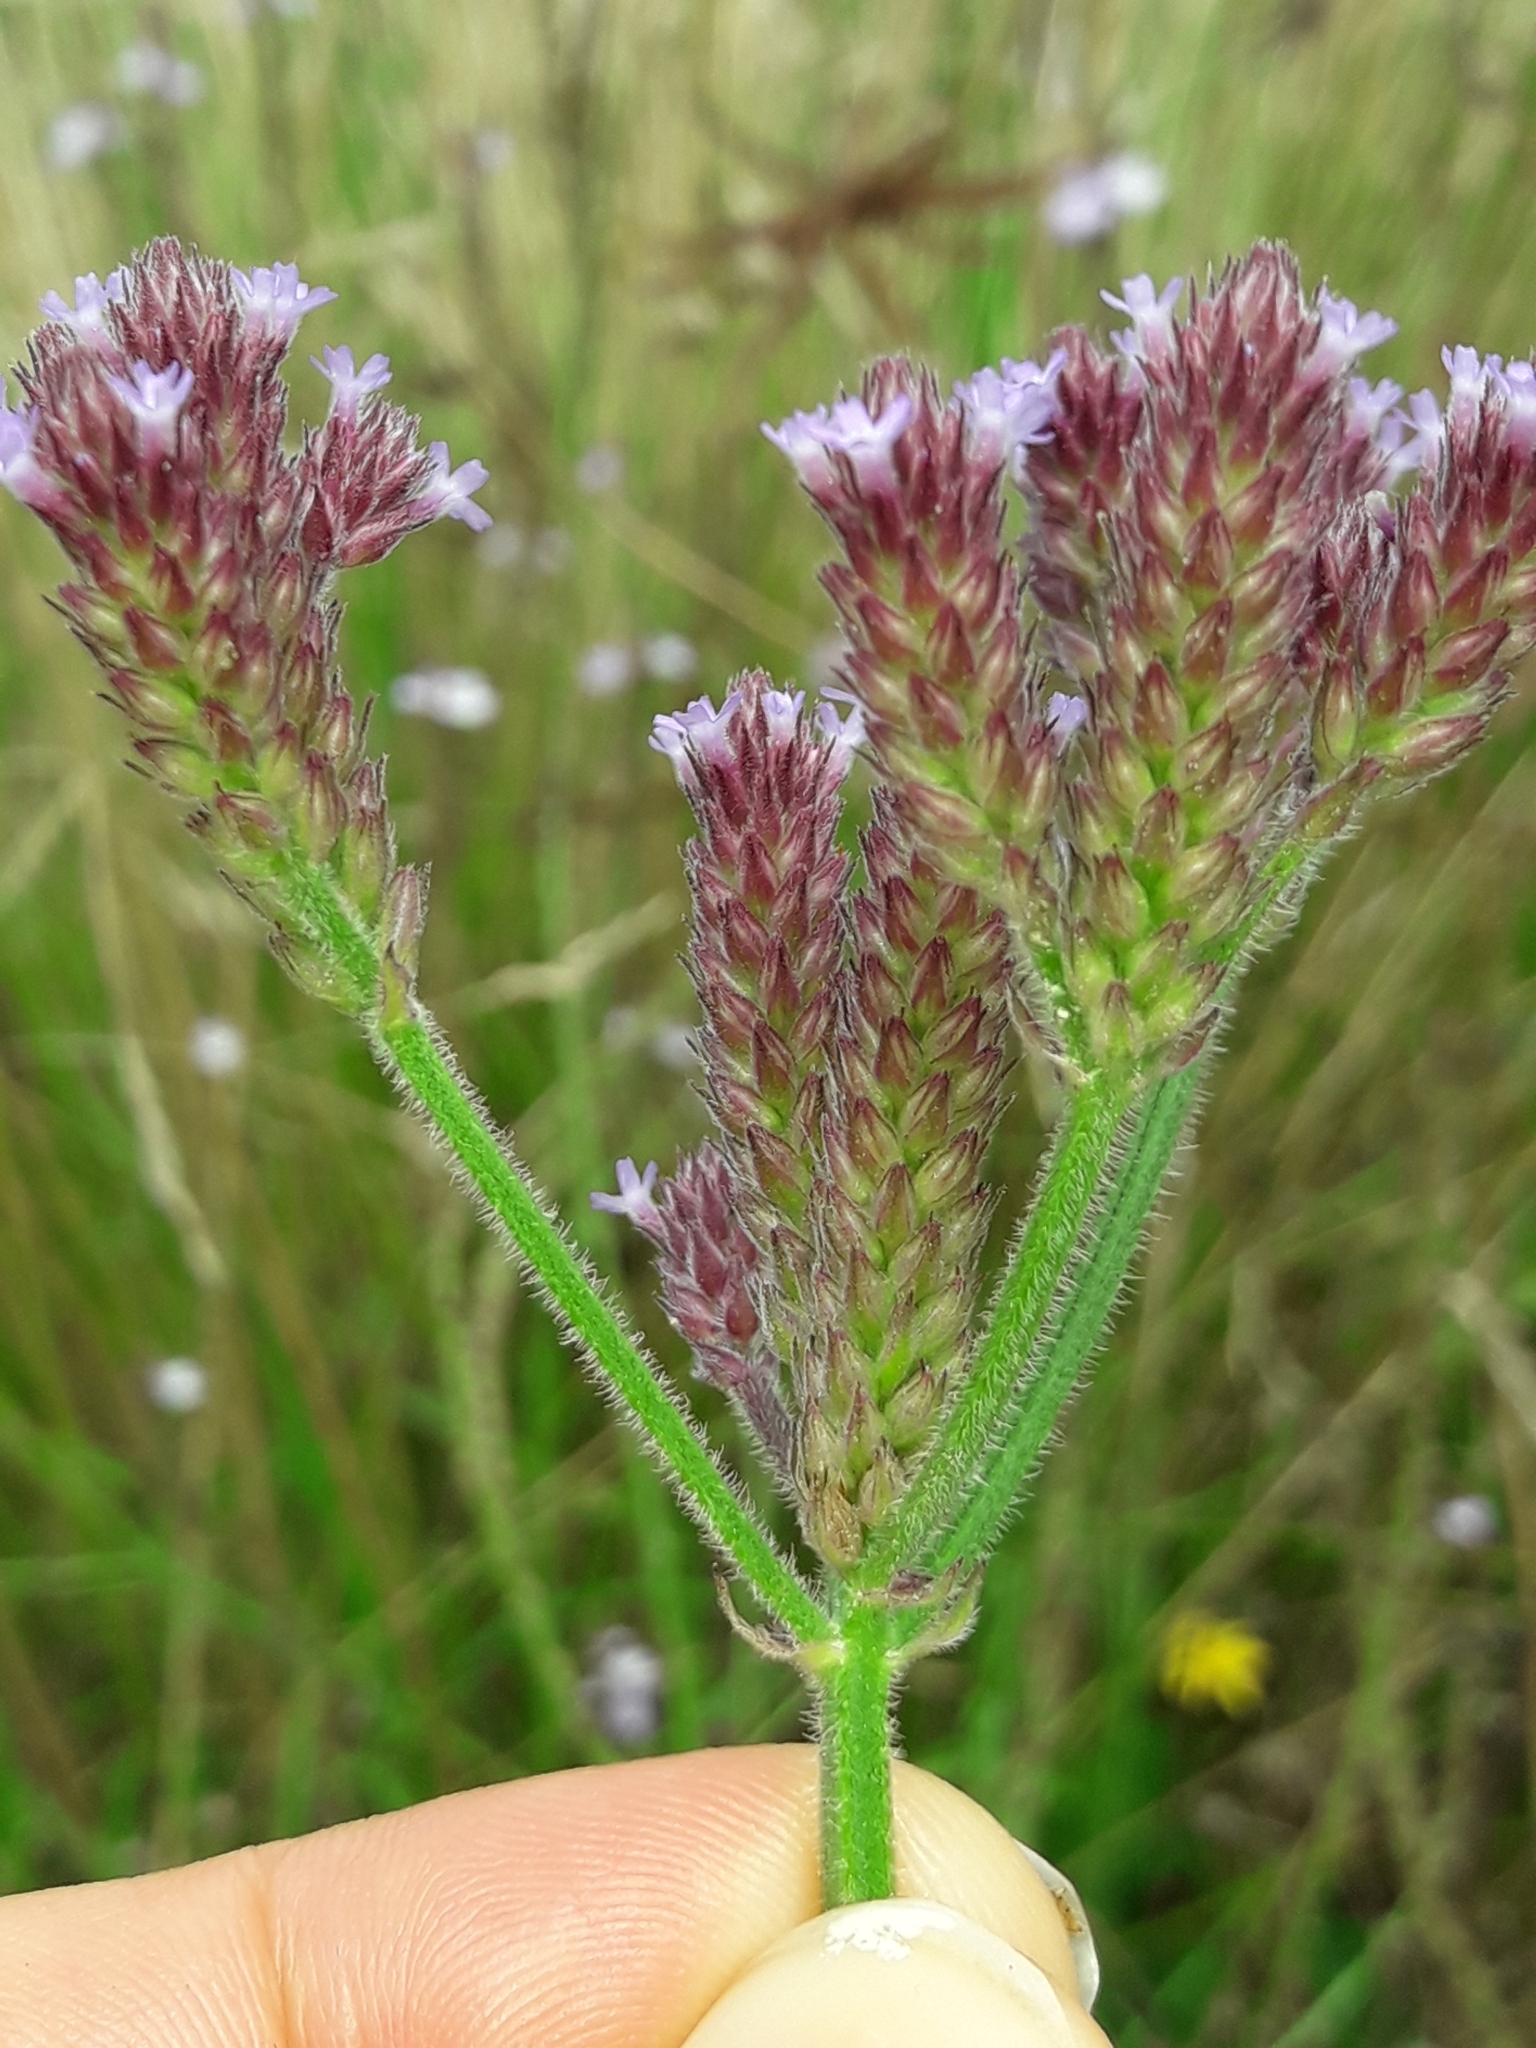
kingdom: Plantae
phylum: Tracheophyta
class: Magnoliopsida
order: Lamiales
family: Verbenaceae
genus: Verbena
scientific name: Verbena incompta
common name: Purpletop vervain
